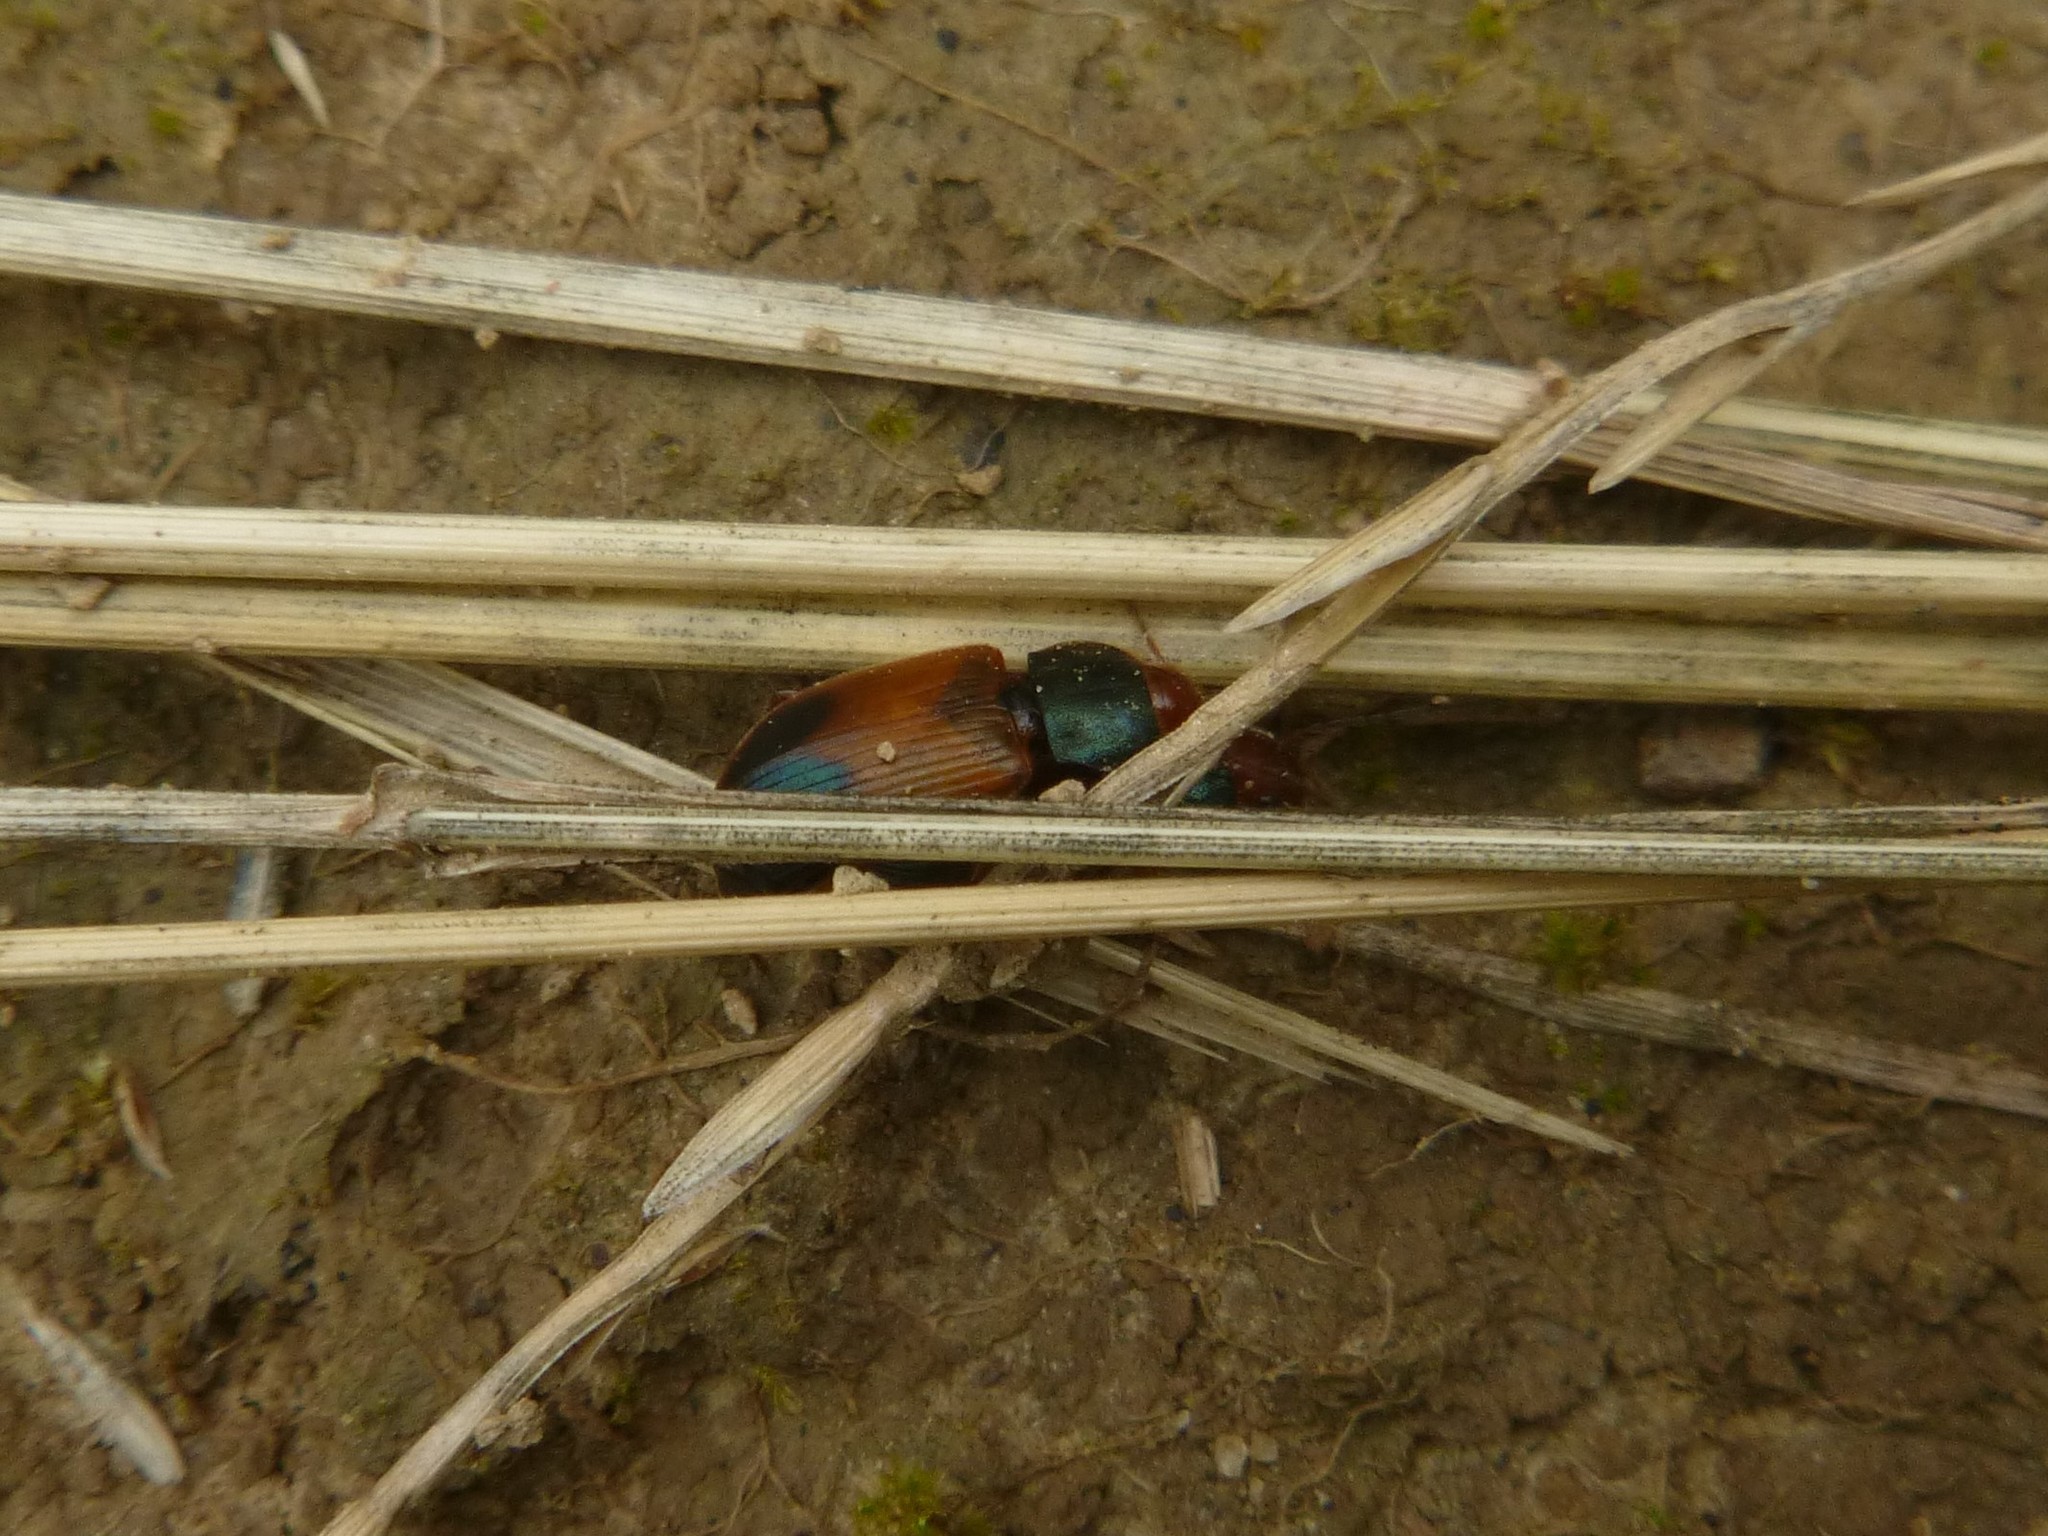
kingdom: Animalia
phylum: Arthropoda
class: Insecta
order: Coleoptera
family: Carabidae
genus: Diachromus
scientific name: Diachromus germanus
